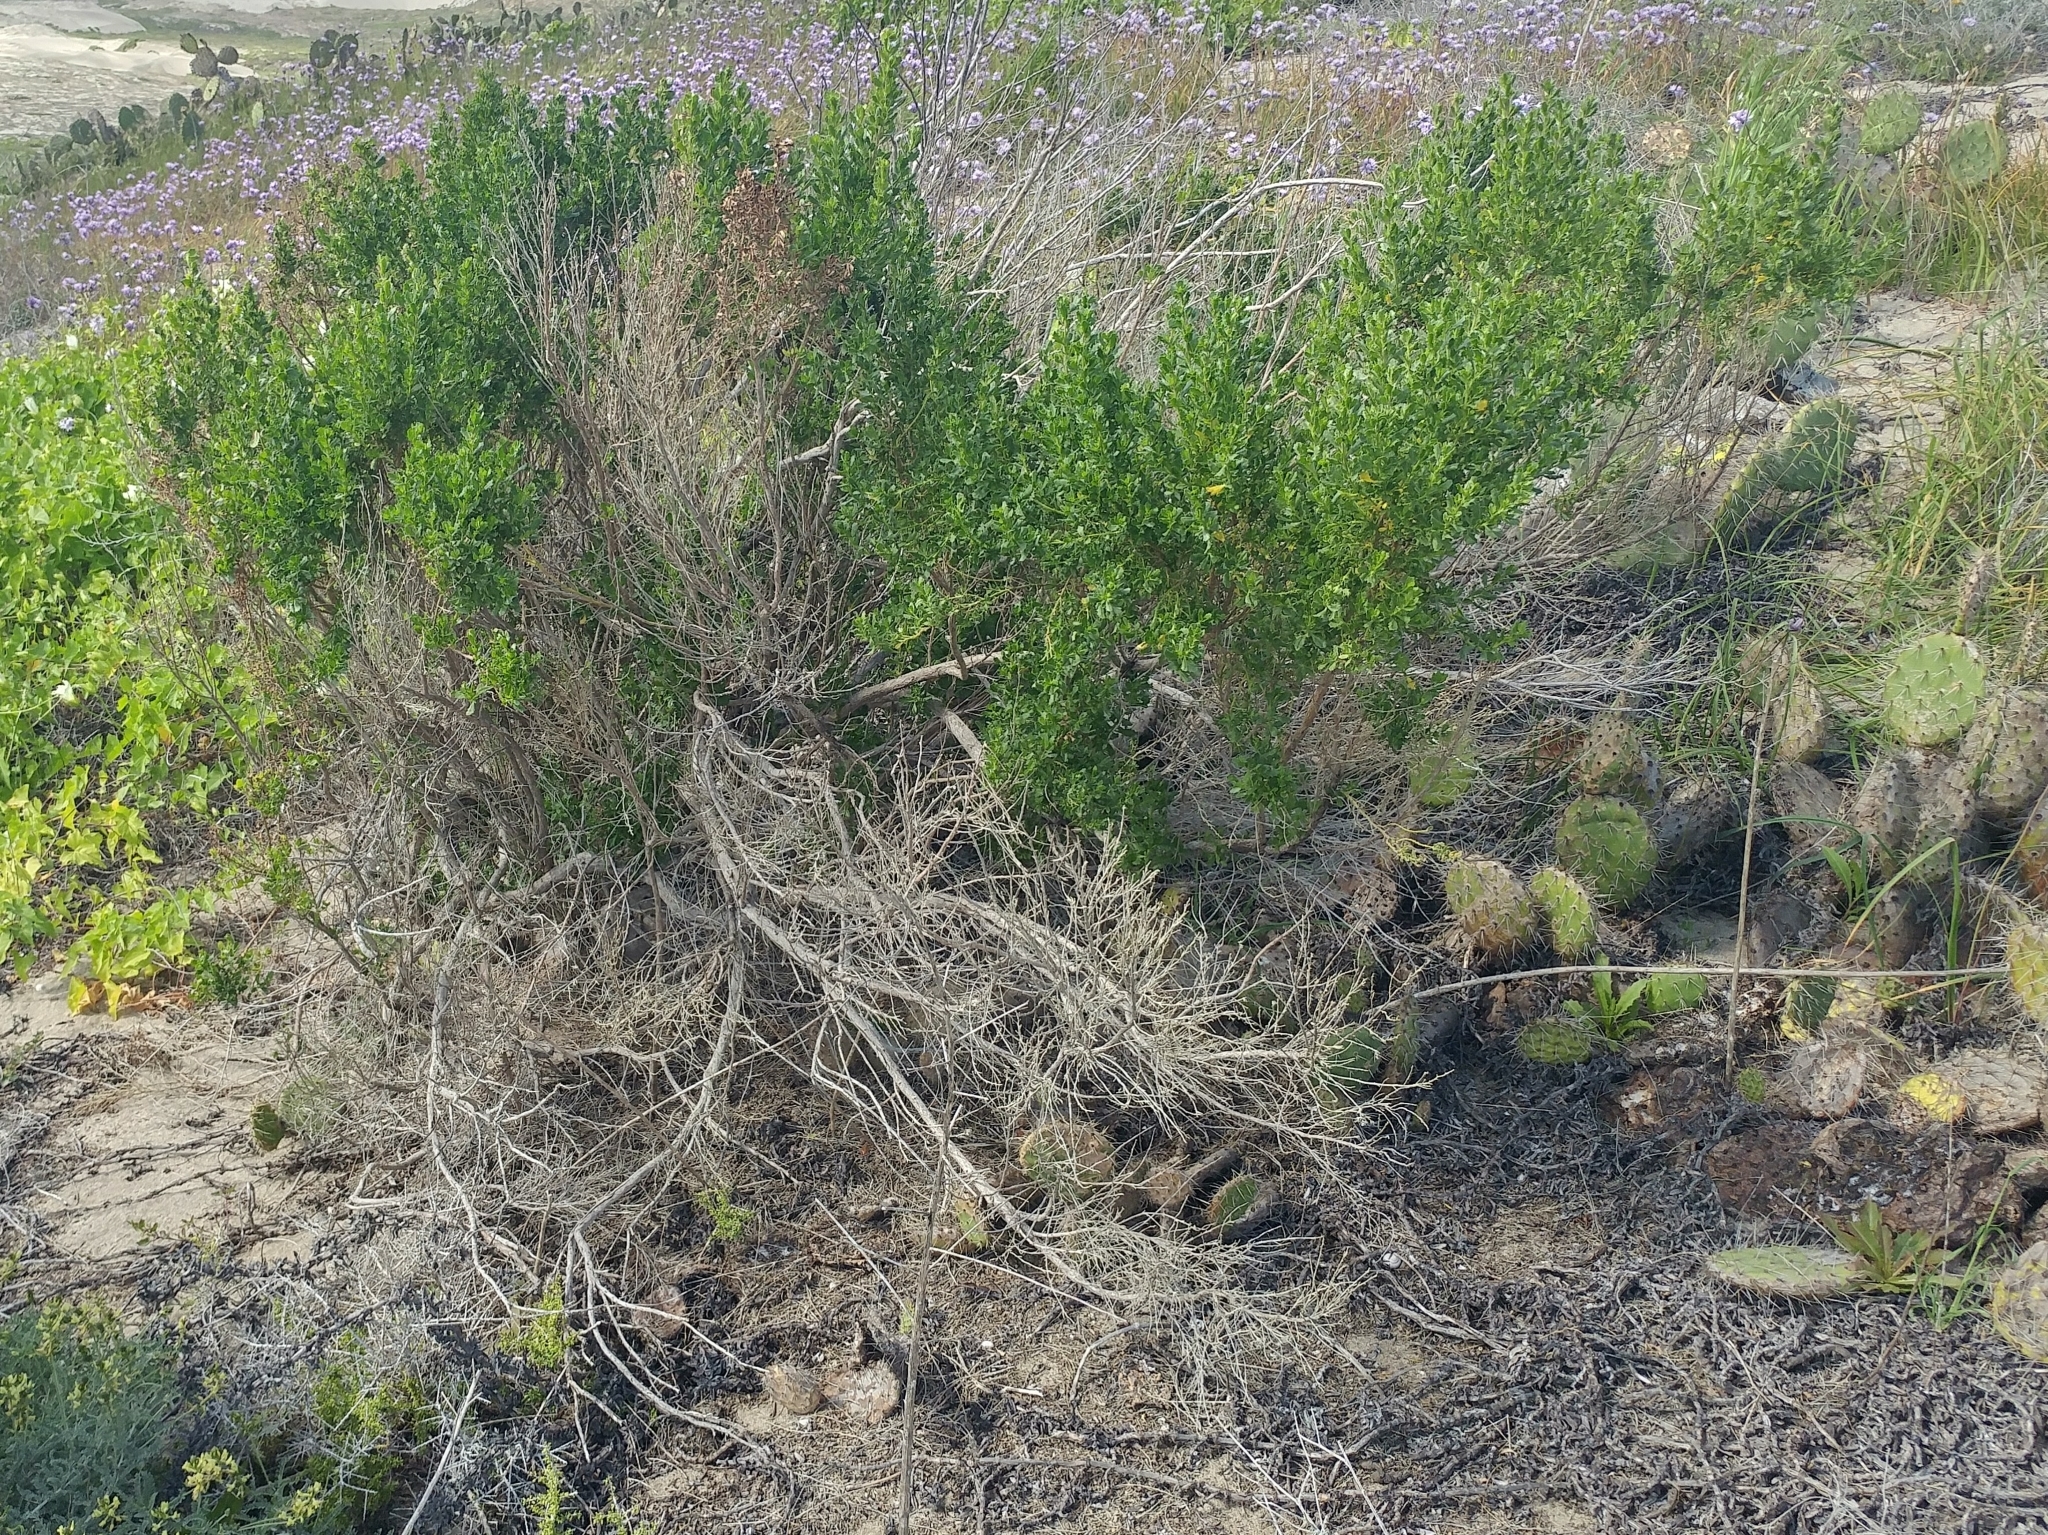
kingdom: Plantae
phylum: Tracheophyta
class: Magnoliopsida
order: Asterales
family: Asteraceae
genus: Baccharis
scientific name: Baccharis pilularis
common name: Coyotebrush
